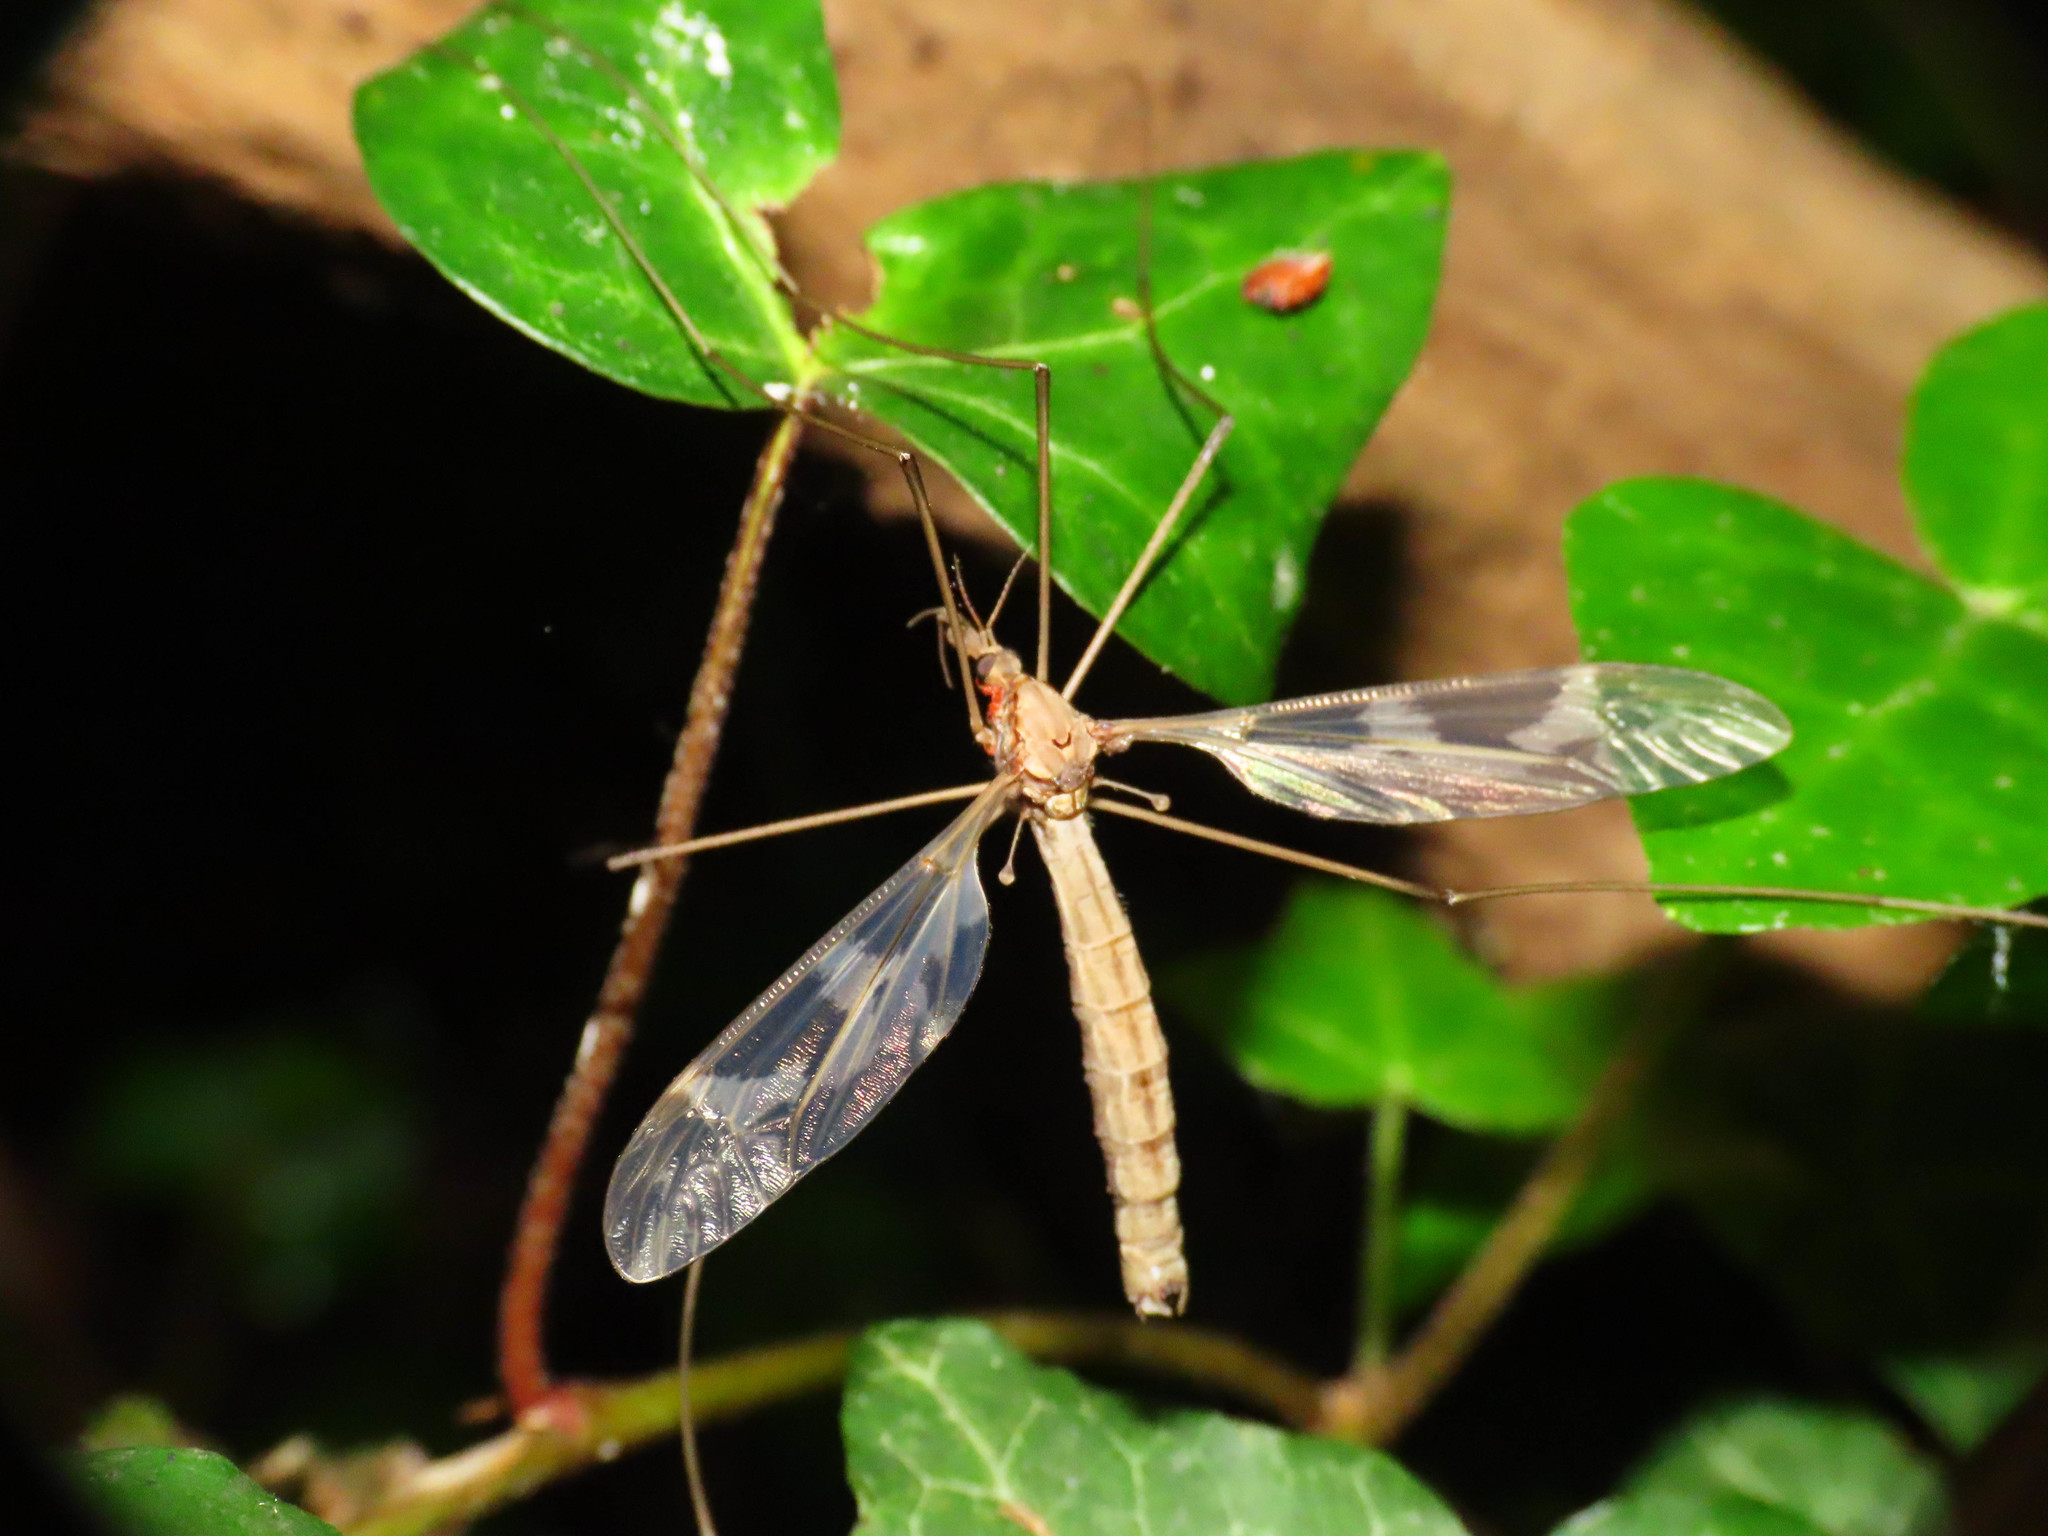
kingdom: Animalia
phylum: Arthropoda
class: Insecta
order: Diptera
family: Tipulidae
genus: Tipula
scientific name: Tipula maxima
